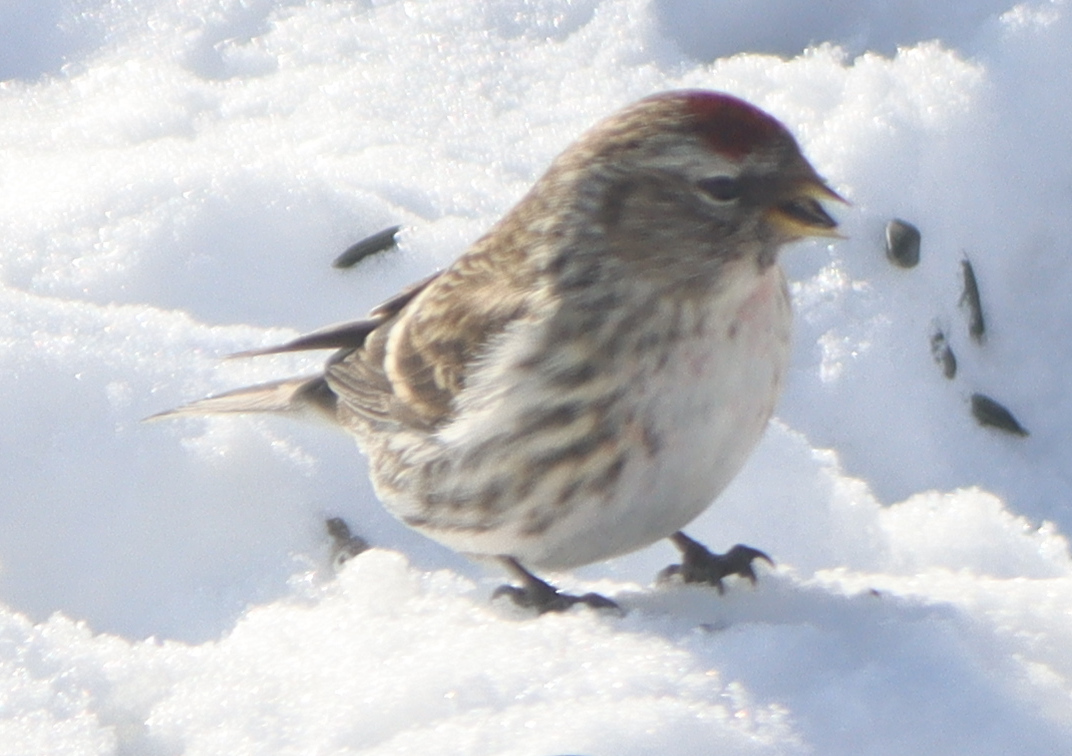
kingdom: Animalia
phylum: Chordata
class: Aves
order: Passeriformes
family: Fringillidae
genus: Acanthis
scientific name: Acanthis flammea
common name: Common redpoll
